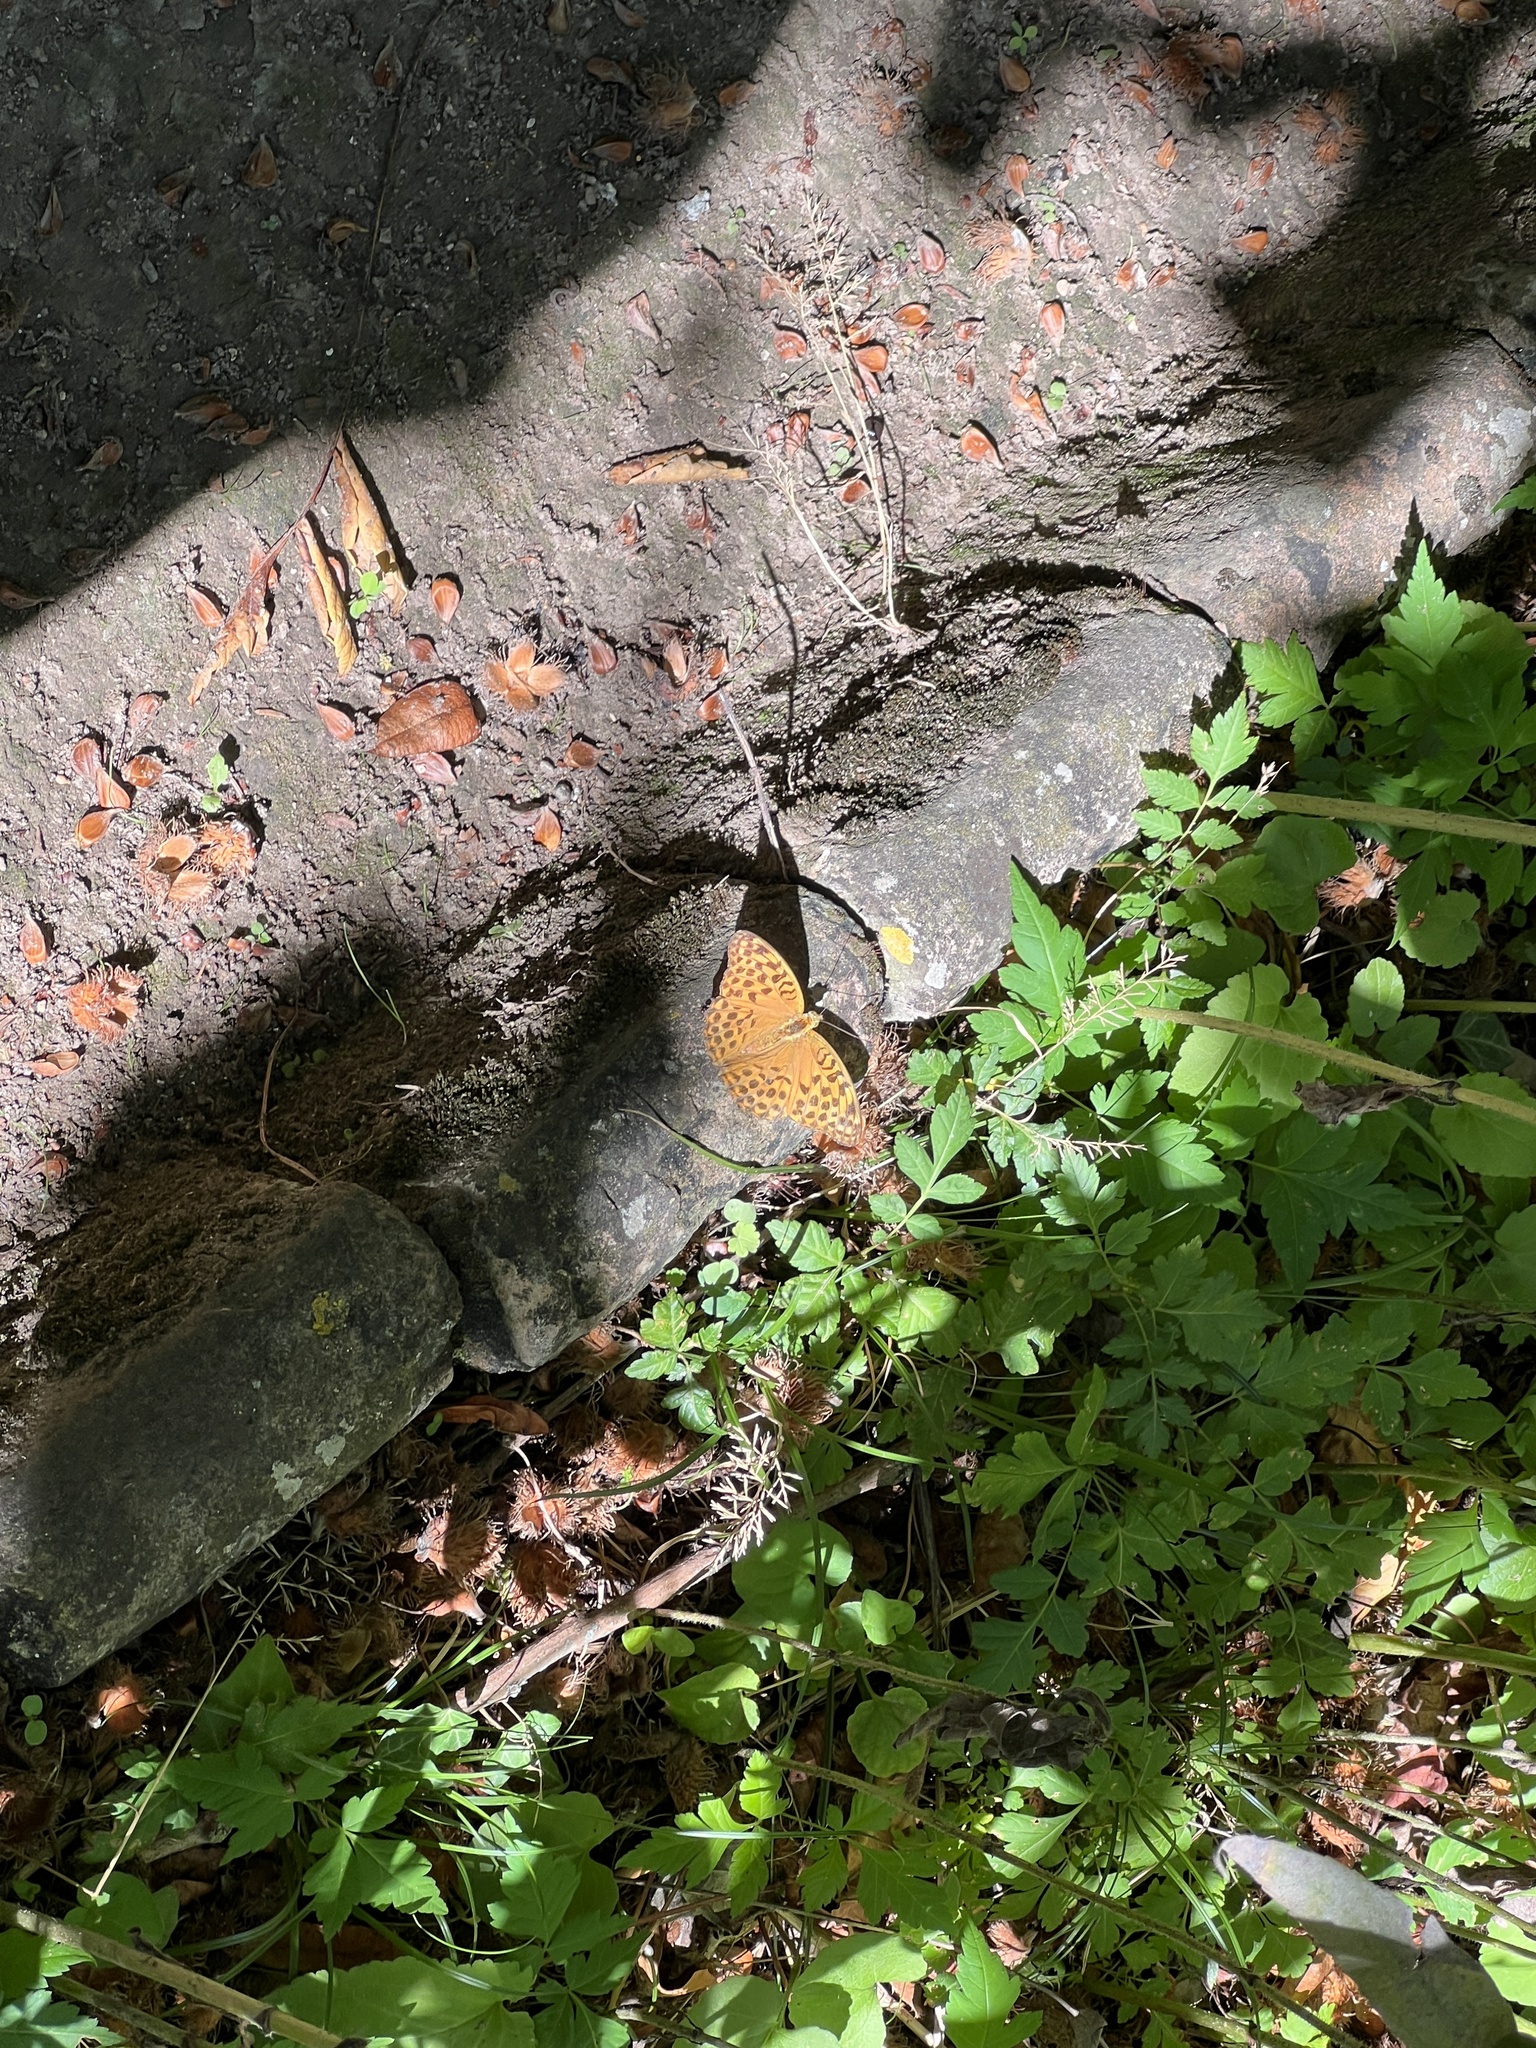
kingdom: Animalia
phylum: Arthropoda
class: Insecta
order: Lepidoptera
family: Nymphalidae
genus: Argynnis
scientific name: Argynnis paphia
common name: Silver-washed fritillary
